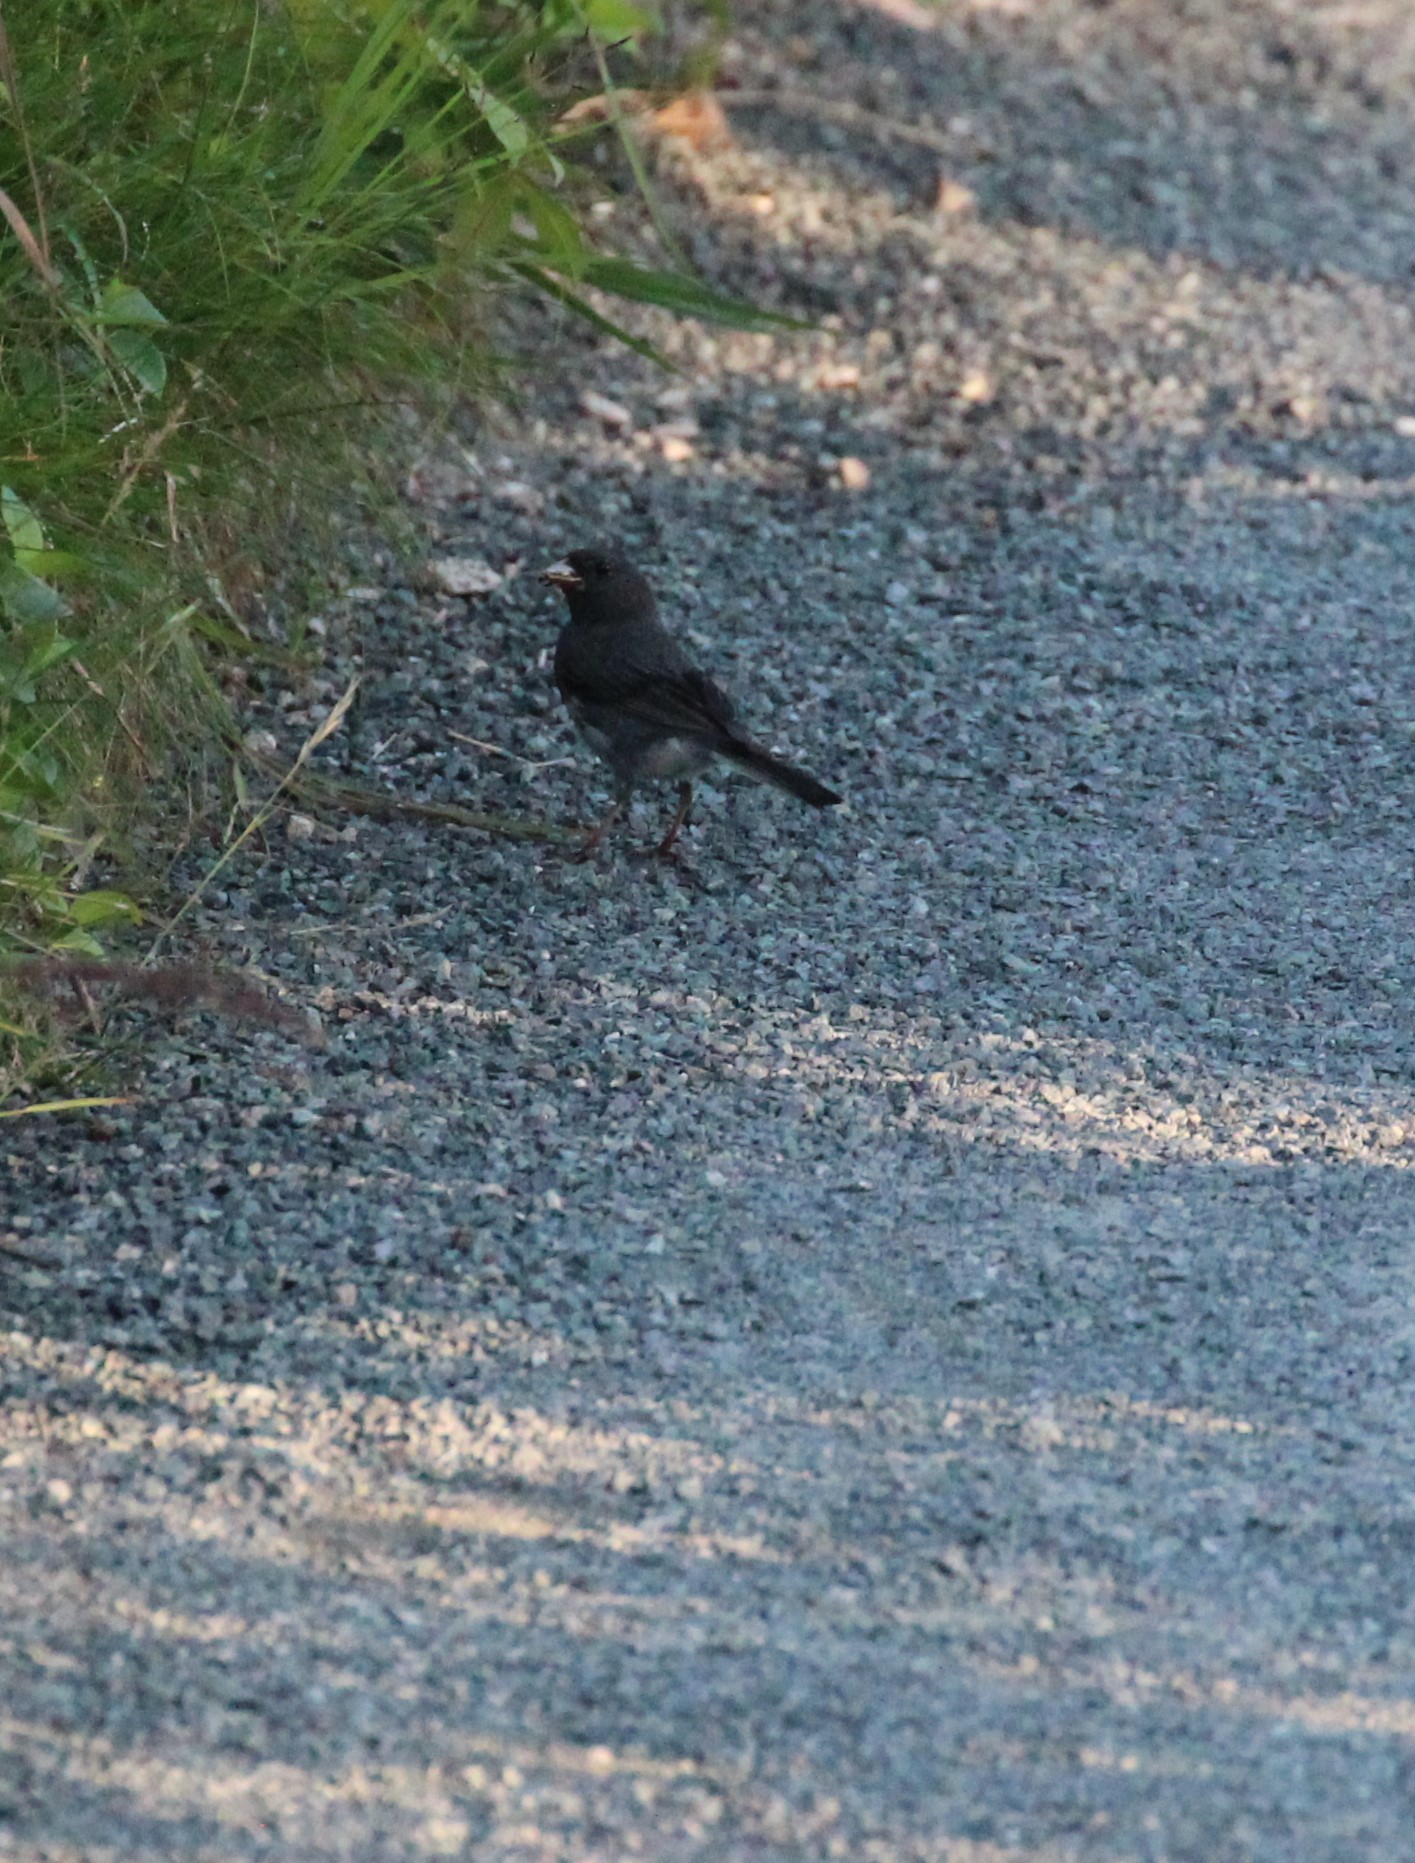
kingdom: Animalia
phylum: Chordata
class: Aves
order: Passeriformes
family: Passerellidae
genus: Junco
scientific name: Junco hyemalis
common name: Dark-eyed junco
